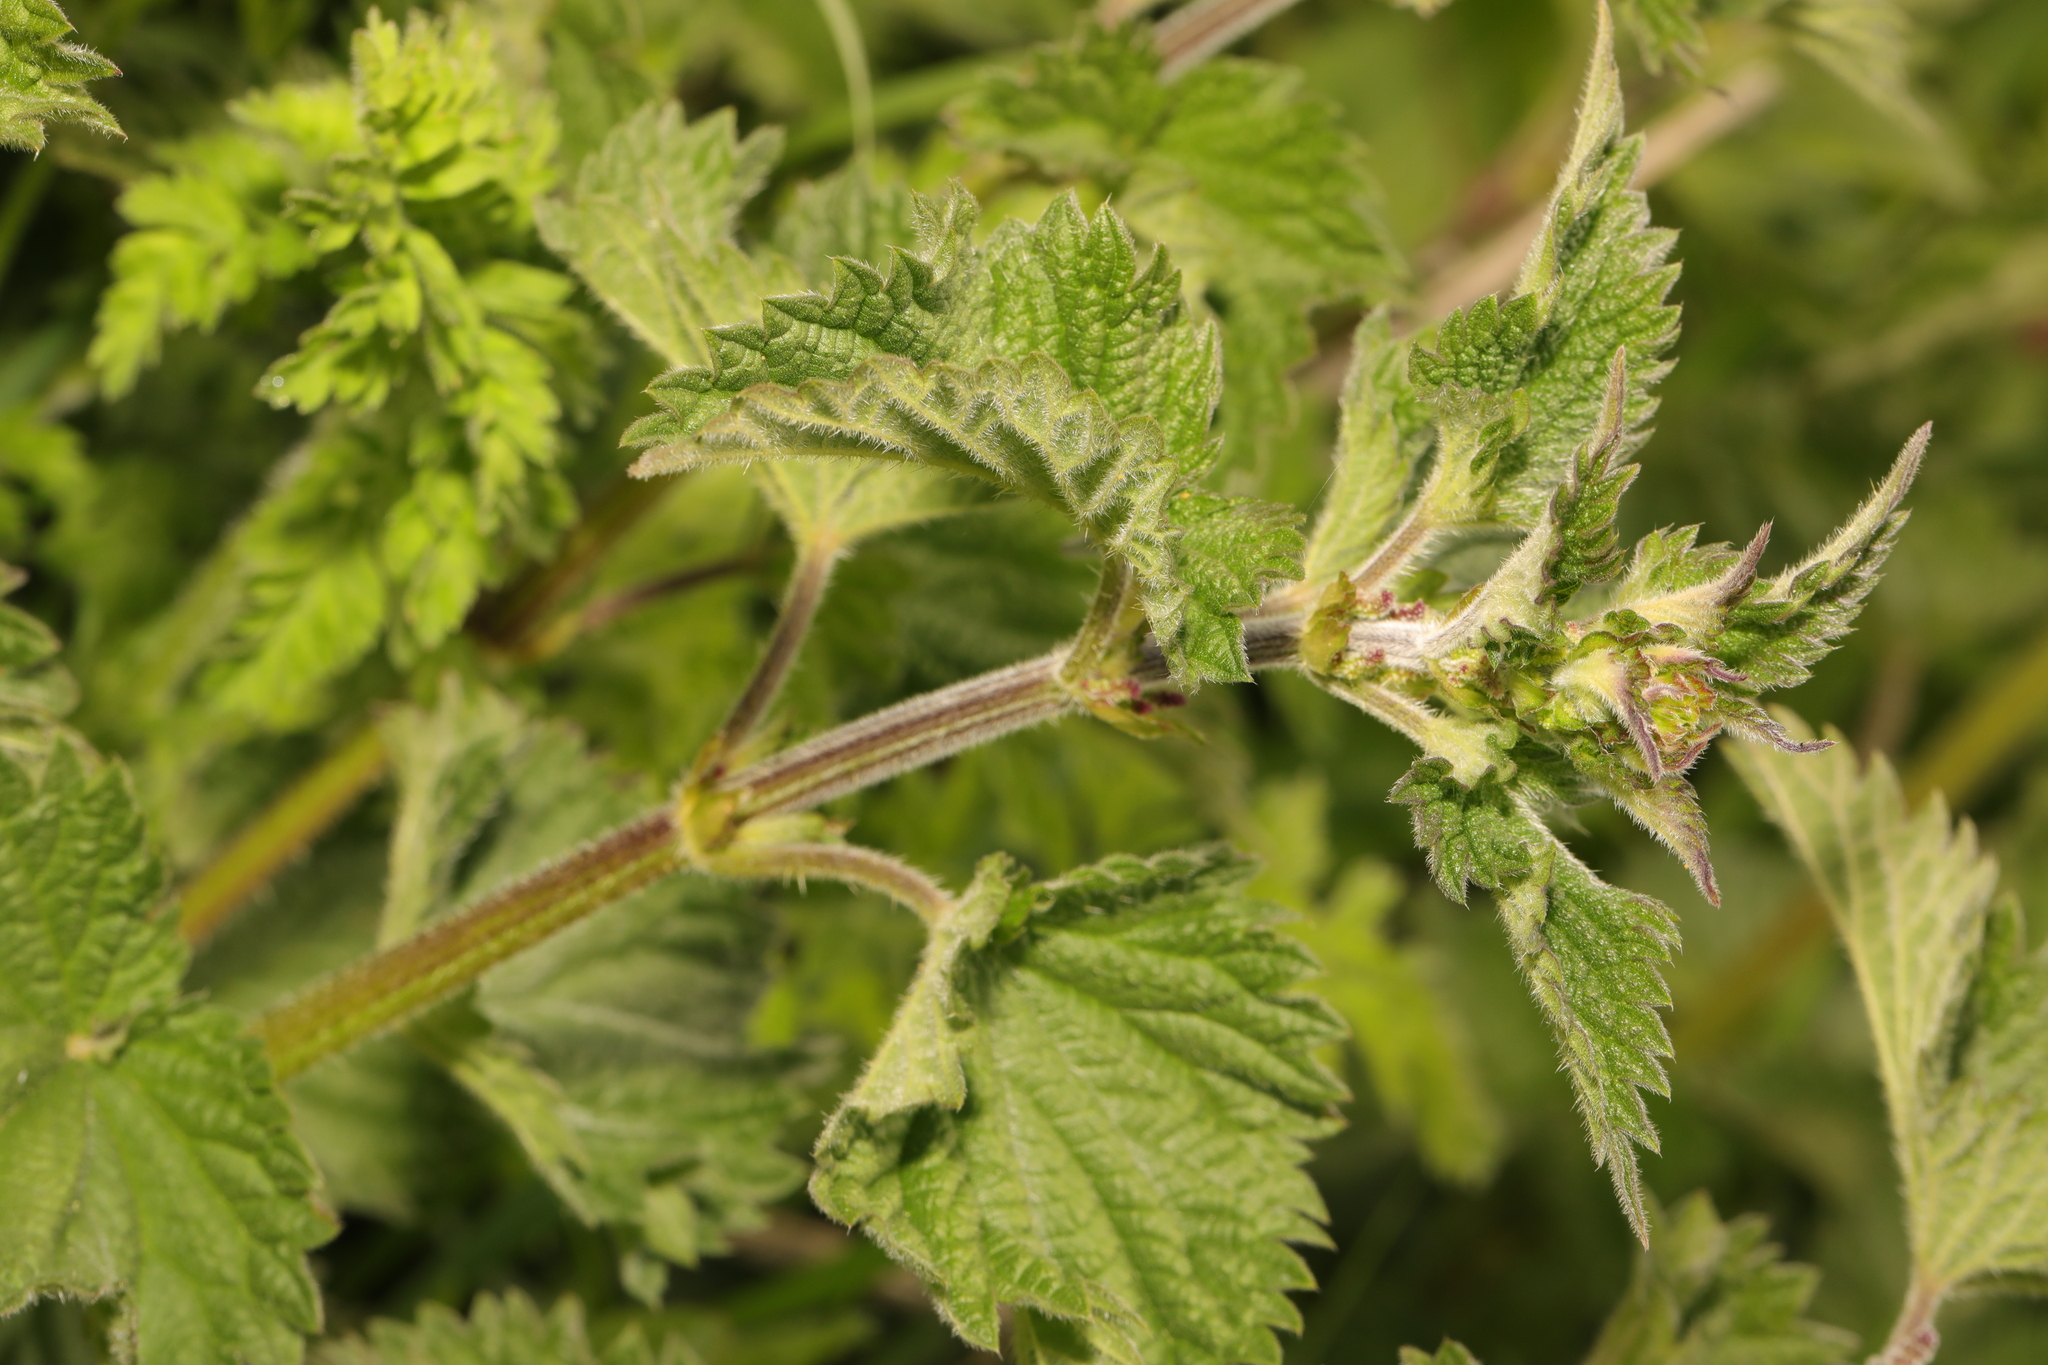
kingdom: Plantae
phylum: Tracheophyta
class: Magnoliopsida
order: Rosales
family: Urticaceae
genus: Urtica
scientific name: Urtica dioica
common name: Common nettle
